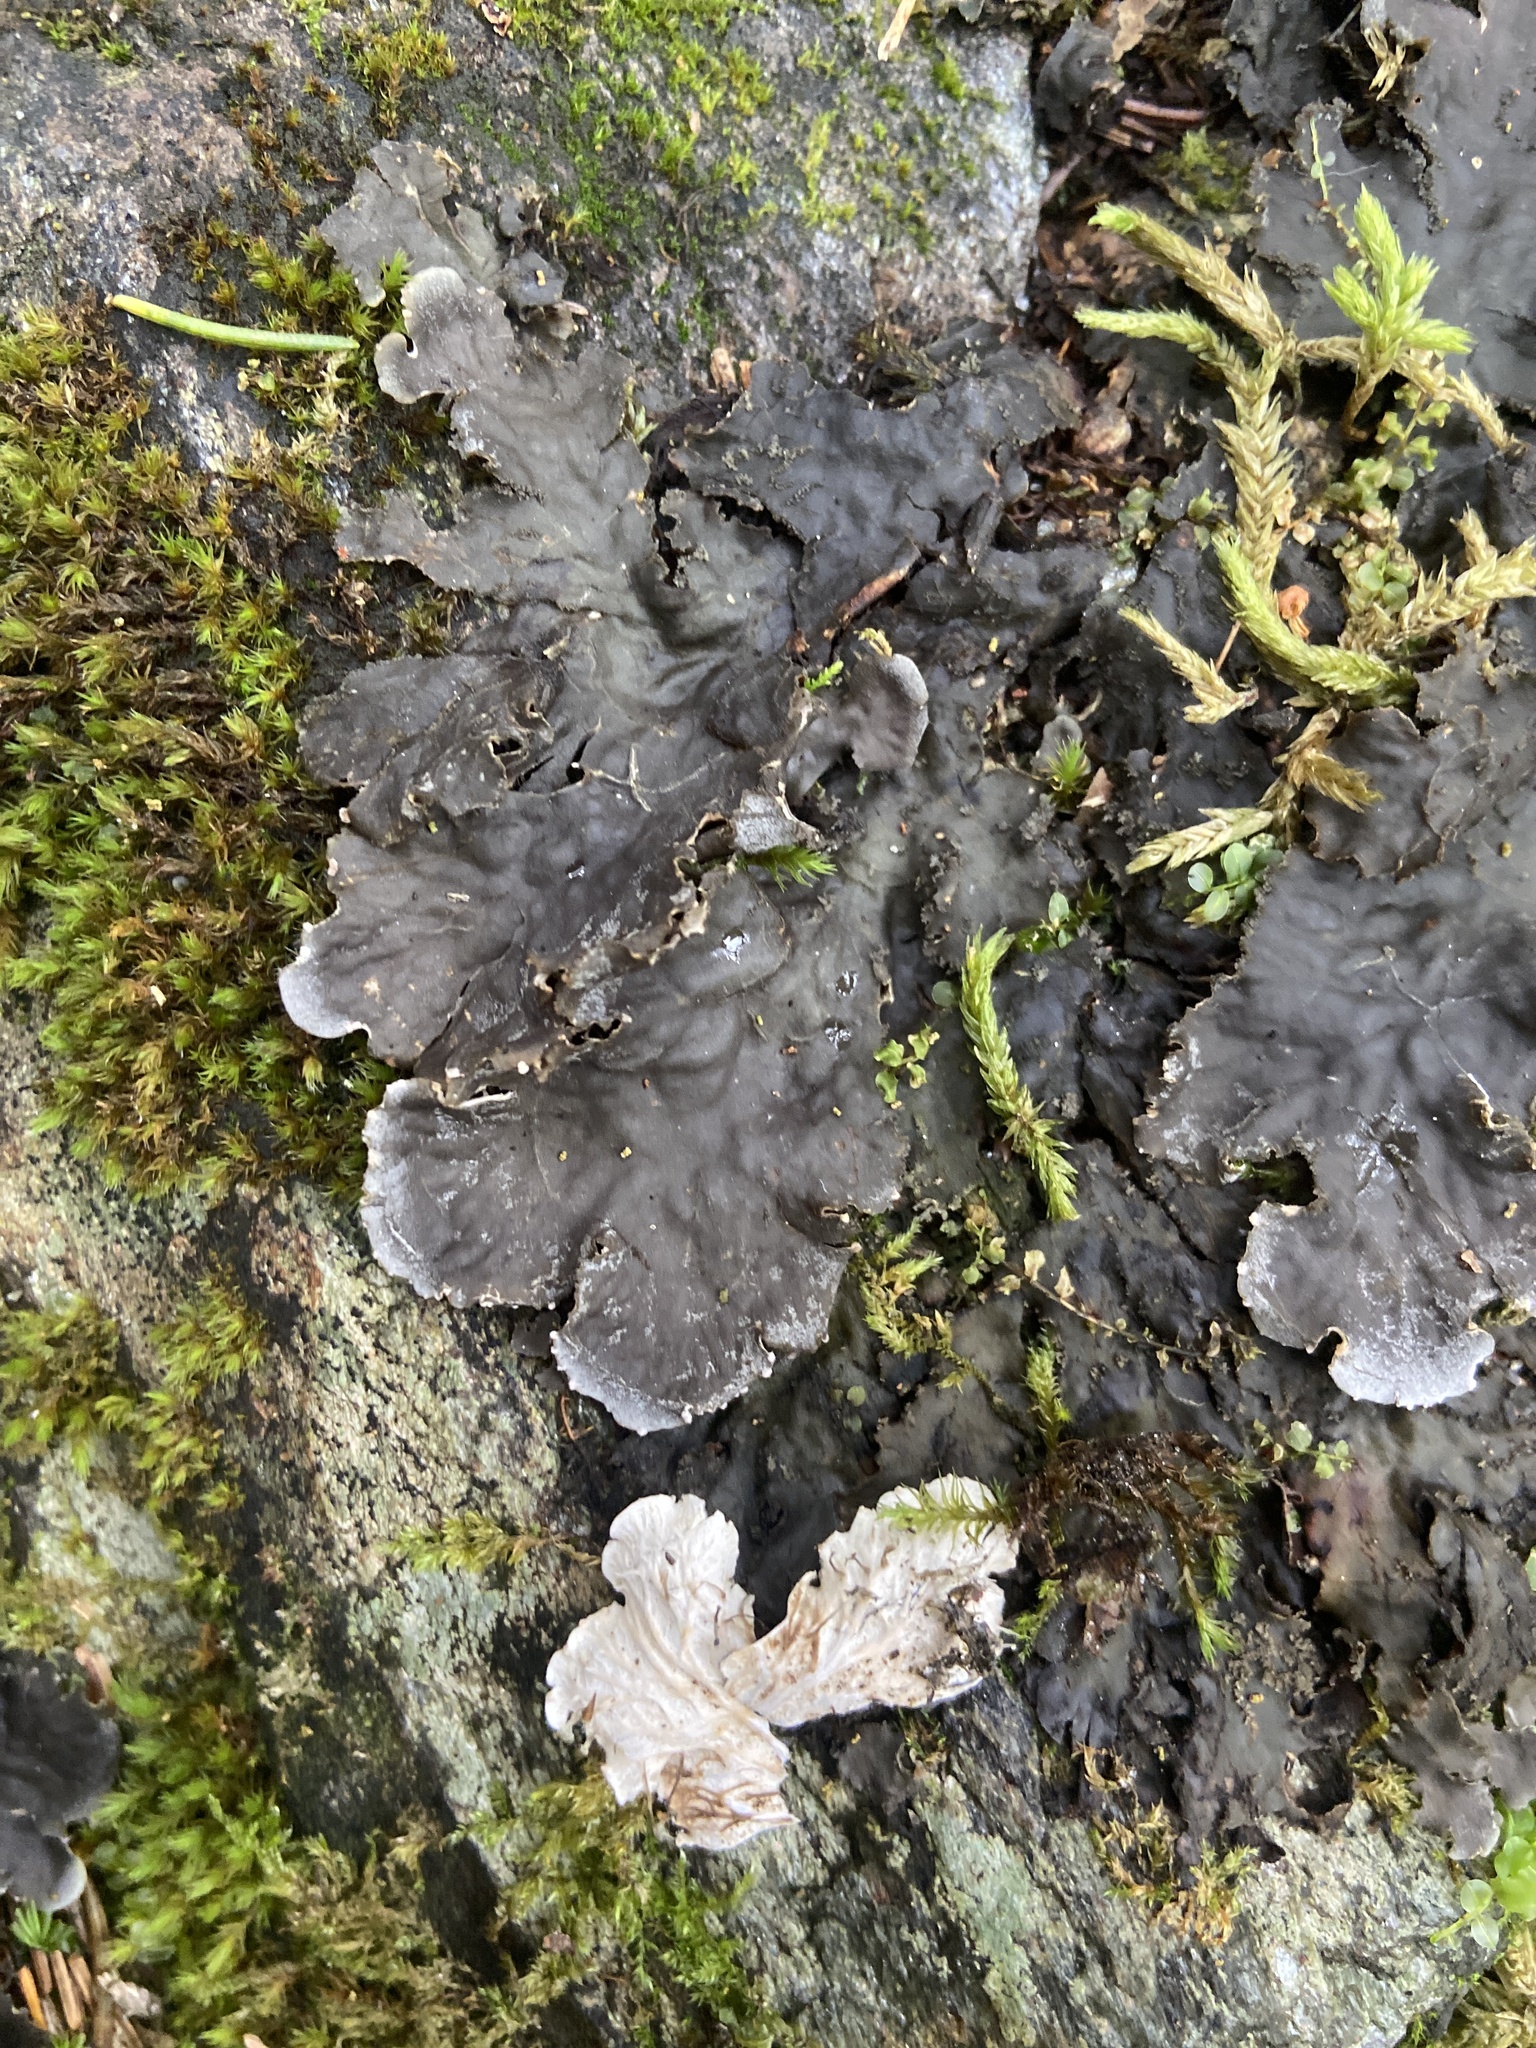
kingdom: Fungi
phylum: Ascomycota
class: Lecanoromycetes
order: Peltigerales
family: Peltigeraceae
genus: Peltigera
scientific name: Peltigera praetextata
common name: Scaly dog-lichen
